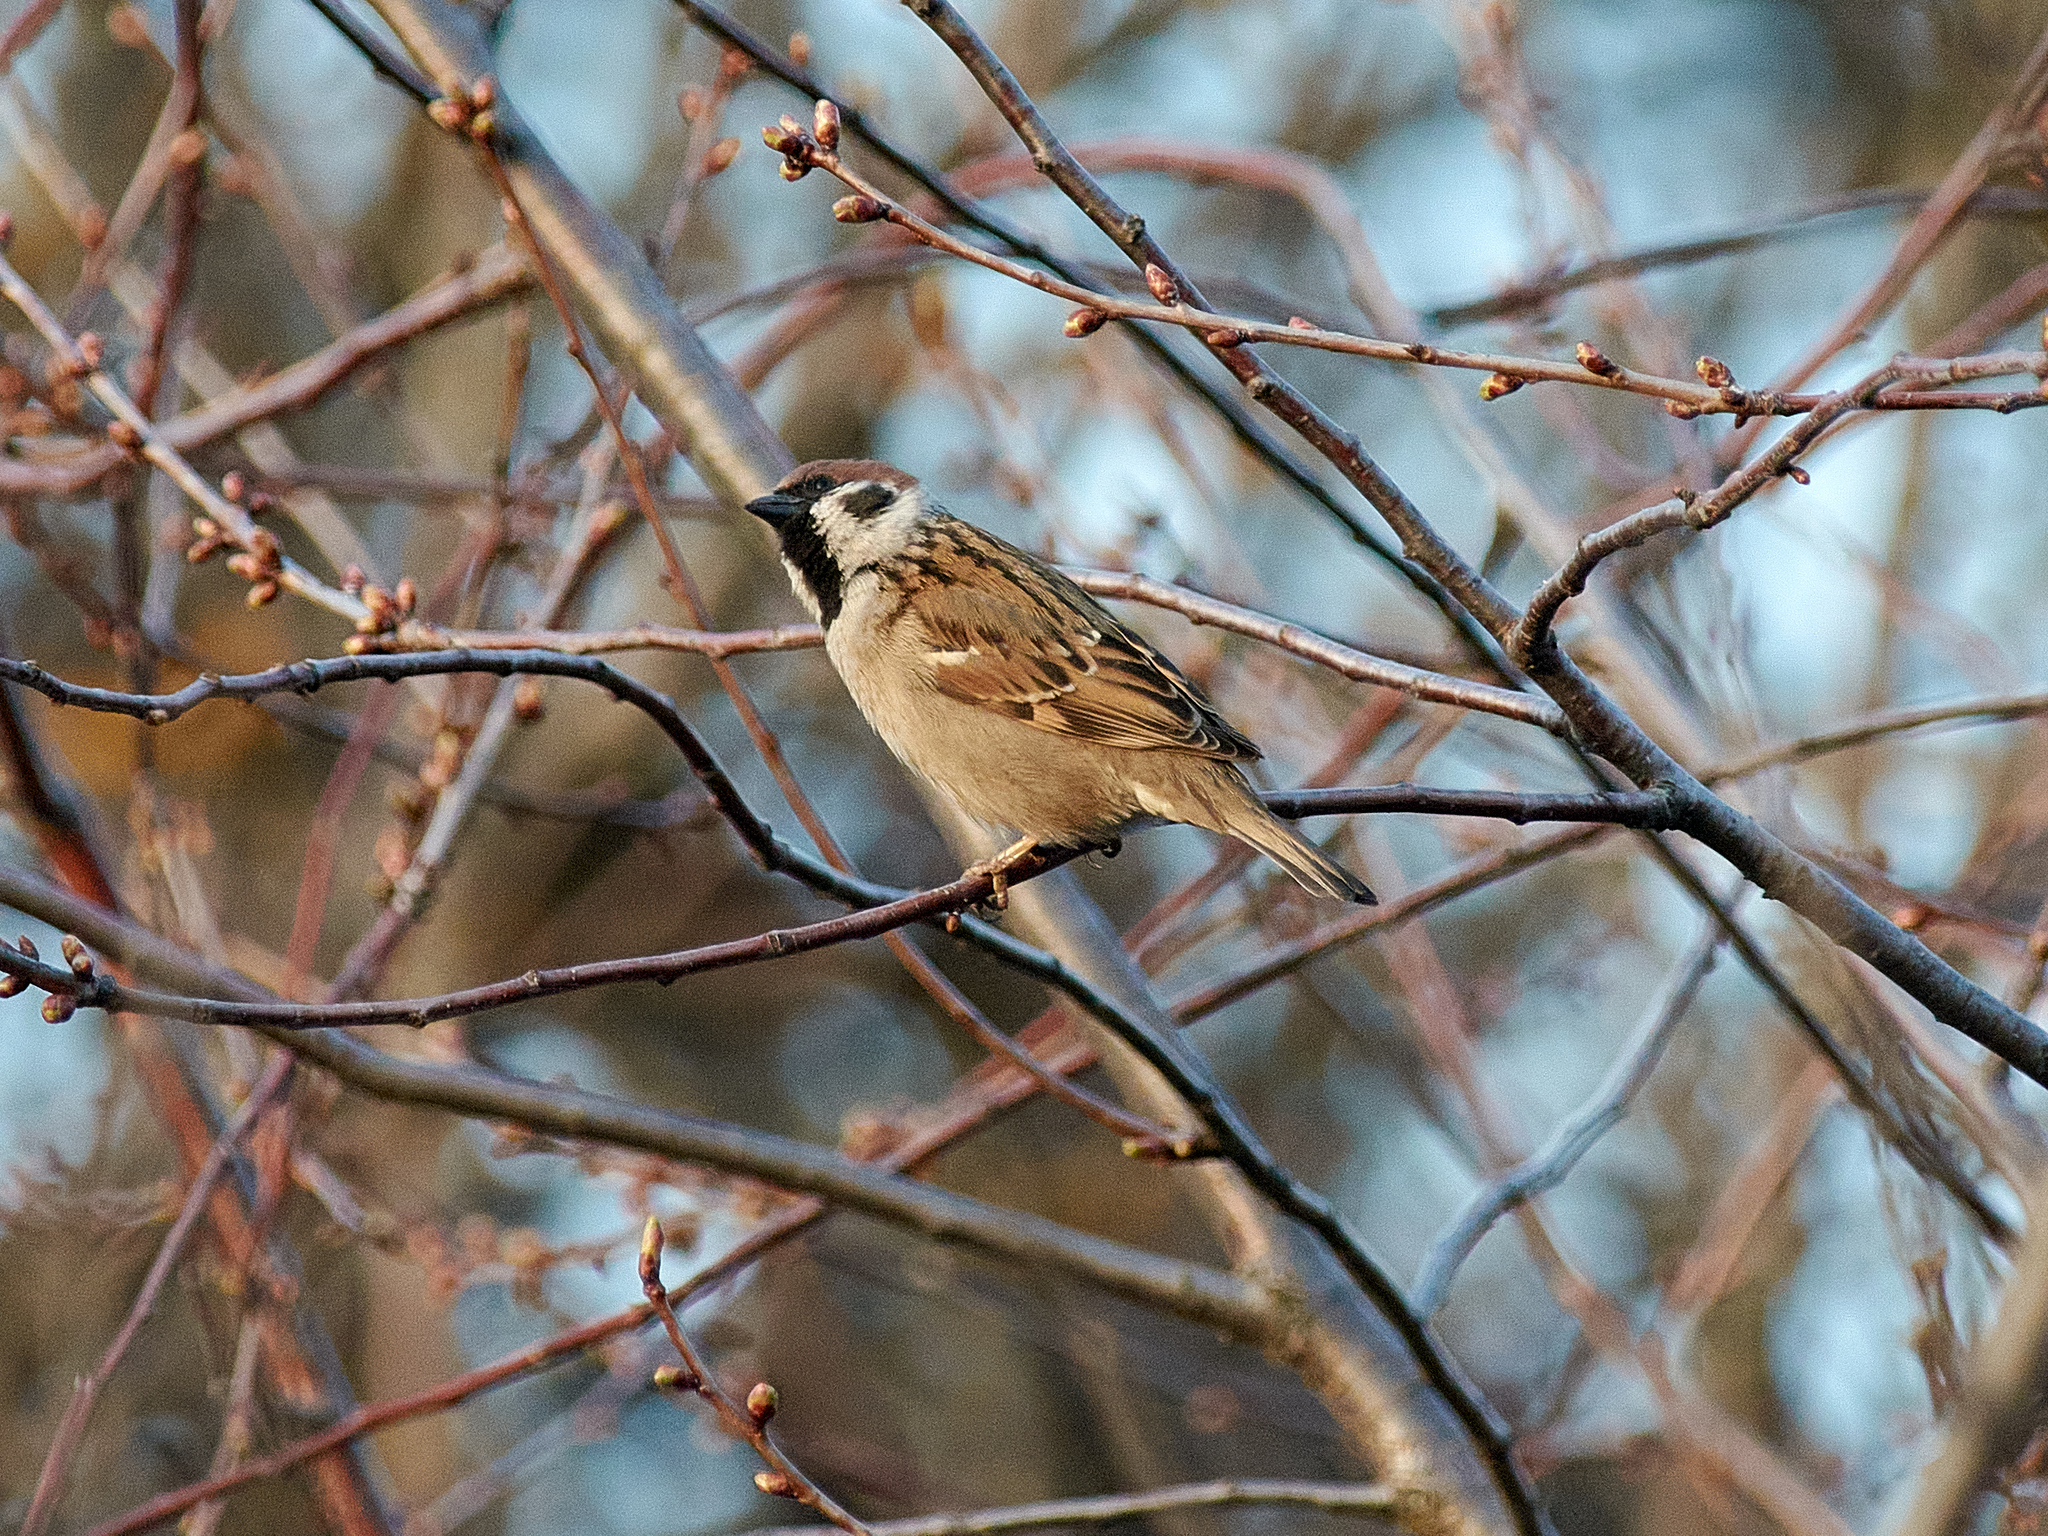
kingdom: Animalia
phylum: Chordata
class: Aves
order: Passeriformes
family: Passeridae
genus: Passer
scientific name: Passer montanus
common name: Eurasian tree sparrow
